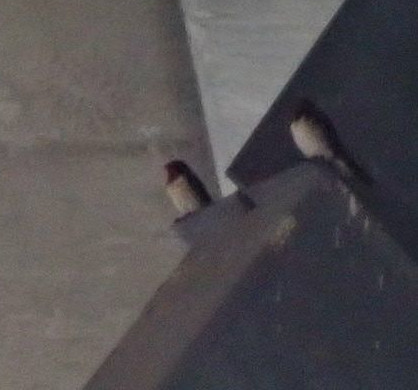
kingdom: Animalia
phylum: Chordata
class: Aves
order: Passeriformes
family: Hirundinidae
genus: Hirundo
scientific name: Hirundo rustica
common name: Barn swallow
